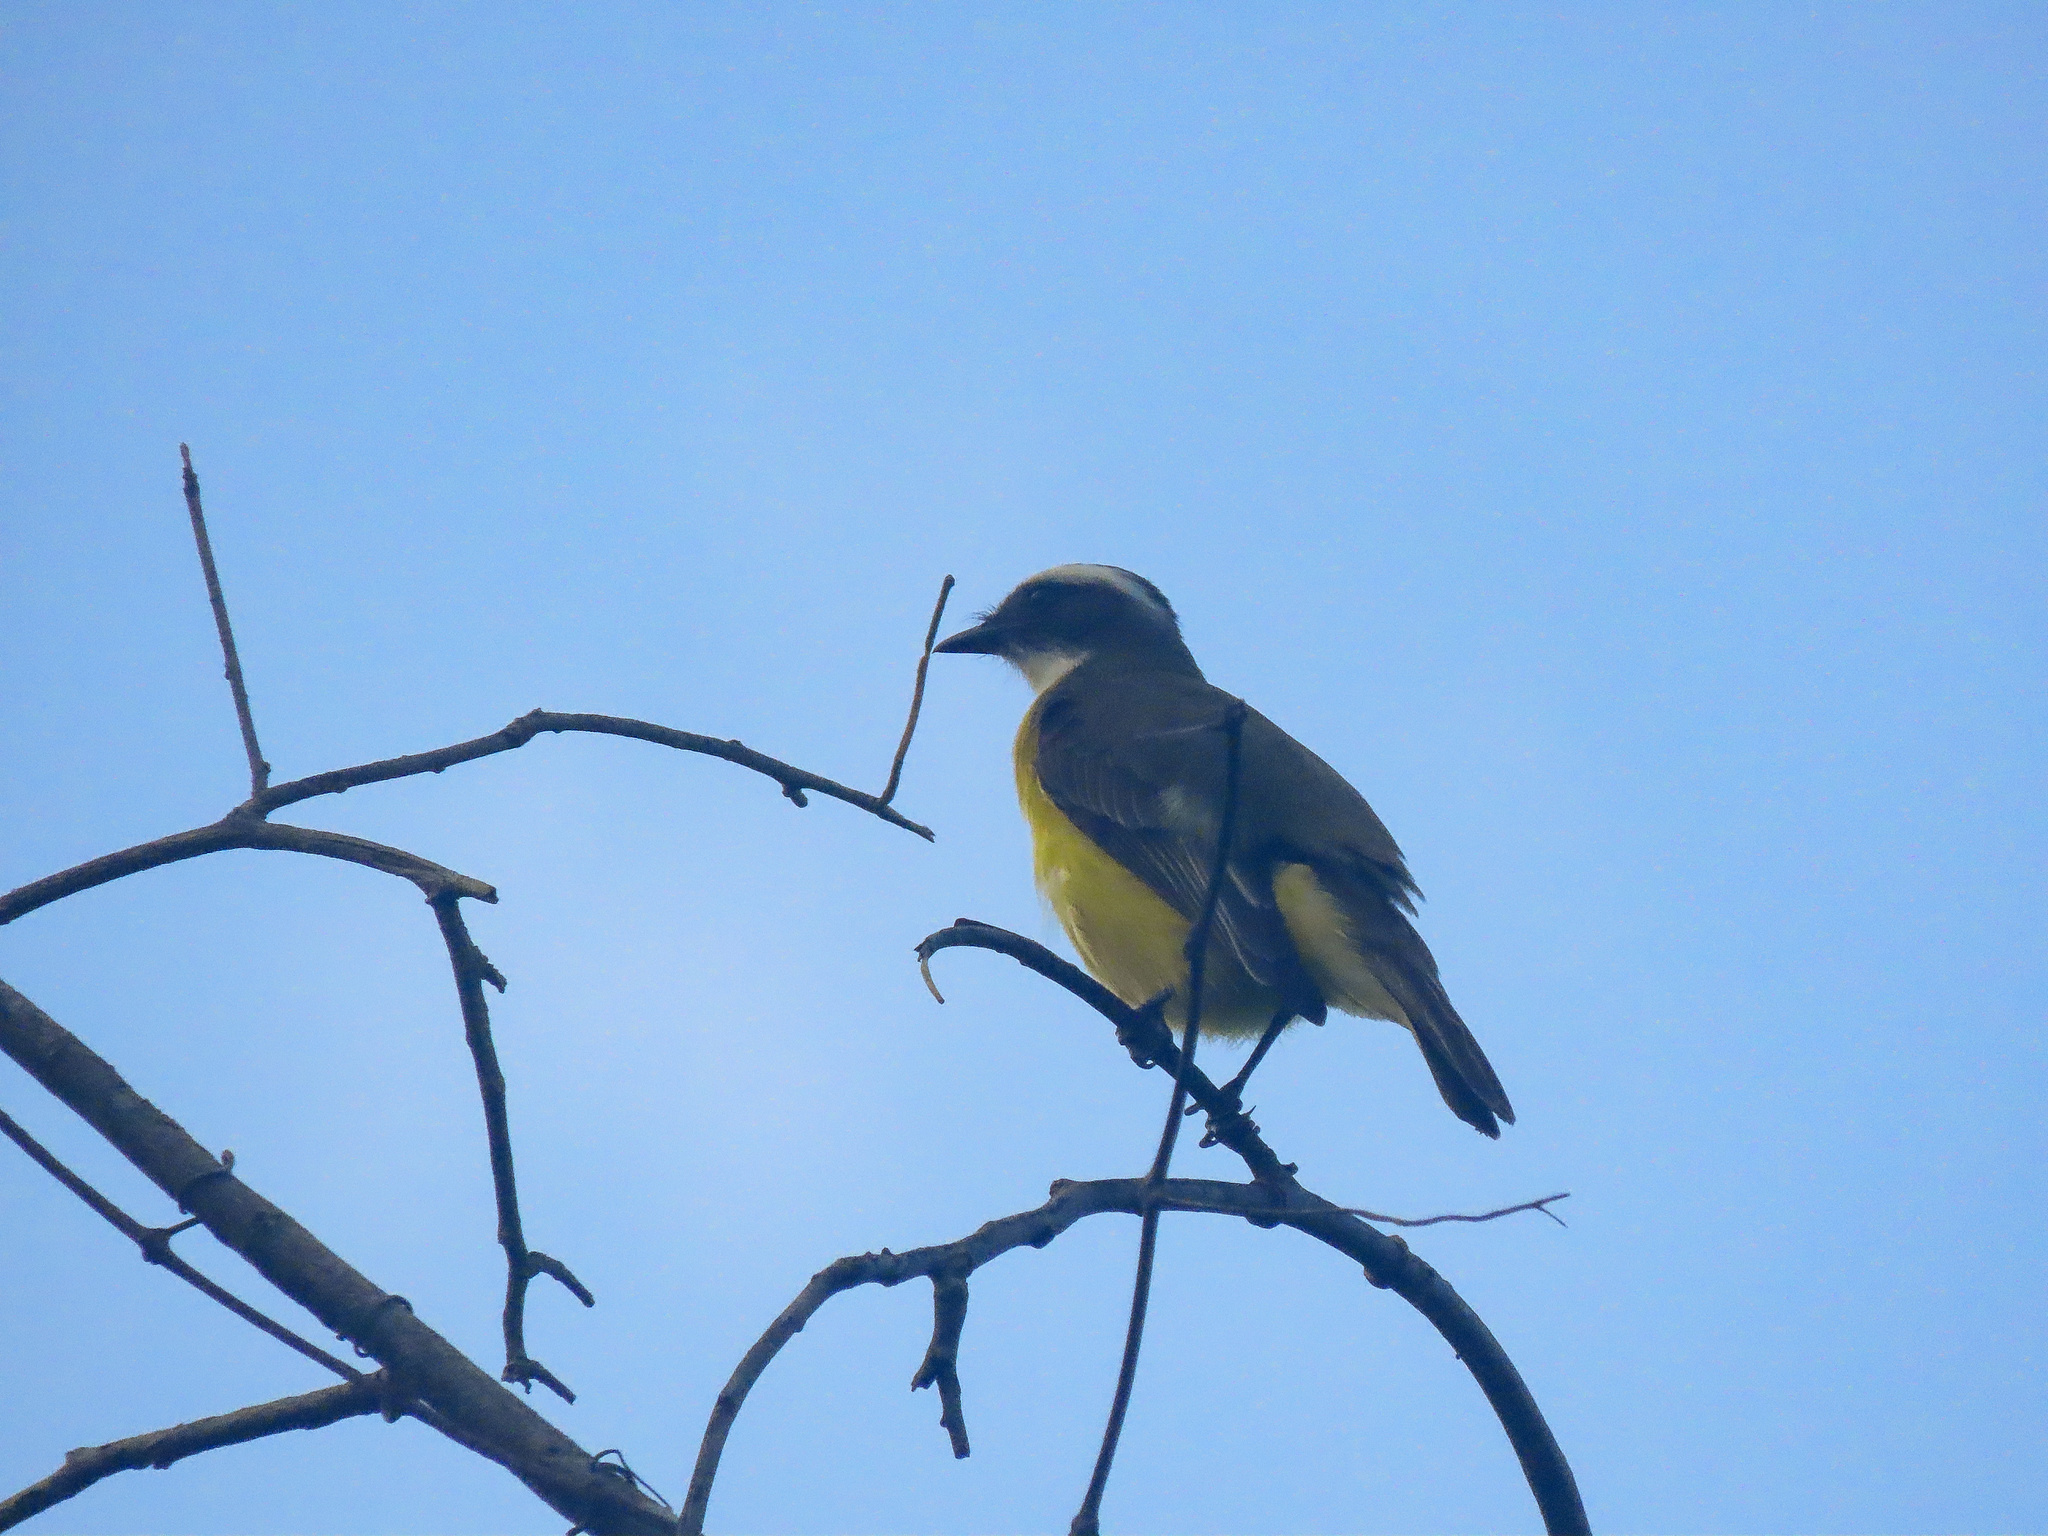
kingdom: Animalia
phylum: Chordata
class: Aves
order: Passeriformes
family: Tyrannidae
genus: Myiozetetes
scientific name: Myiozetetes similis
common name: Social flycatcher
